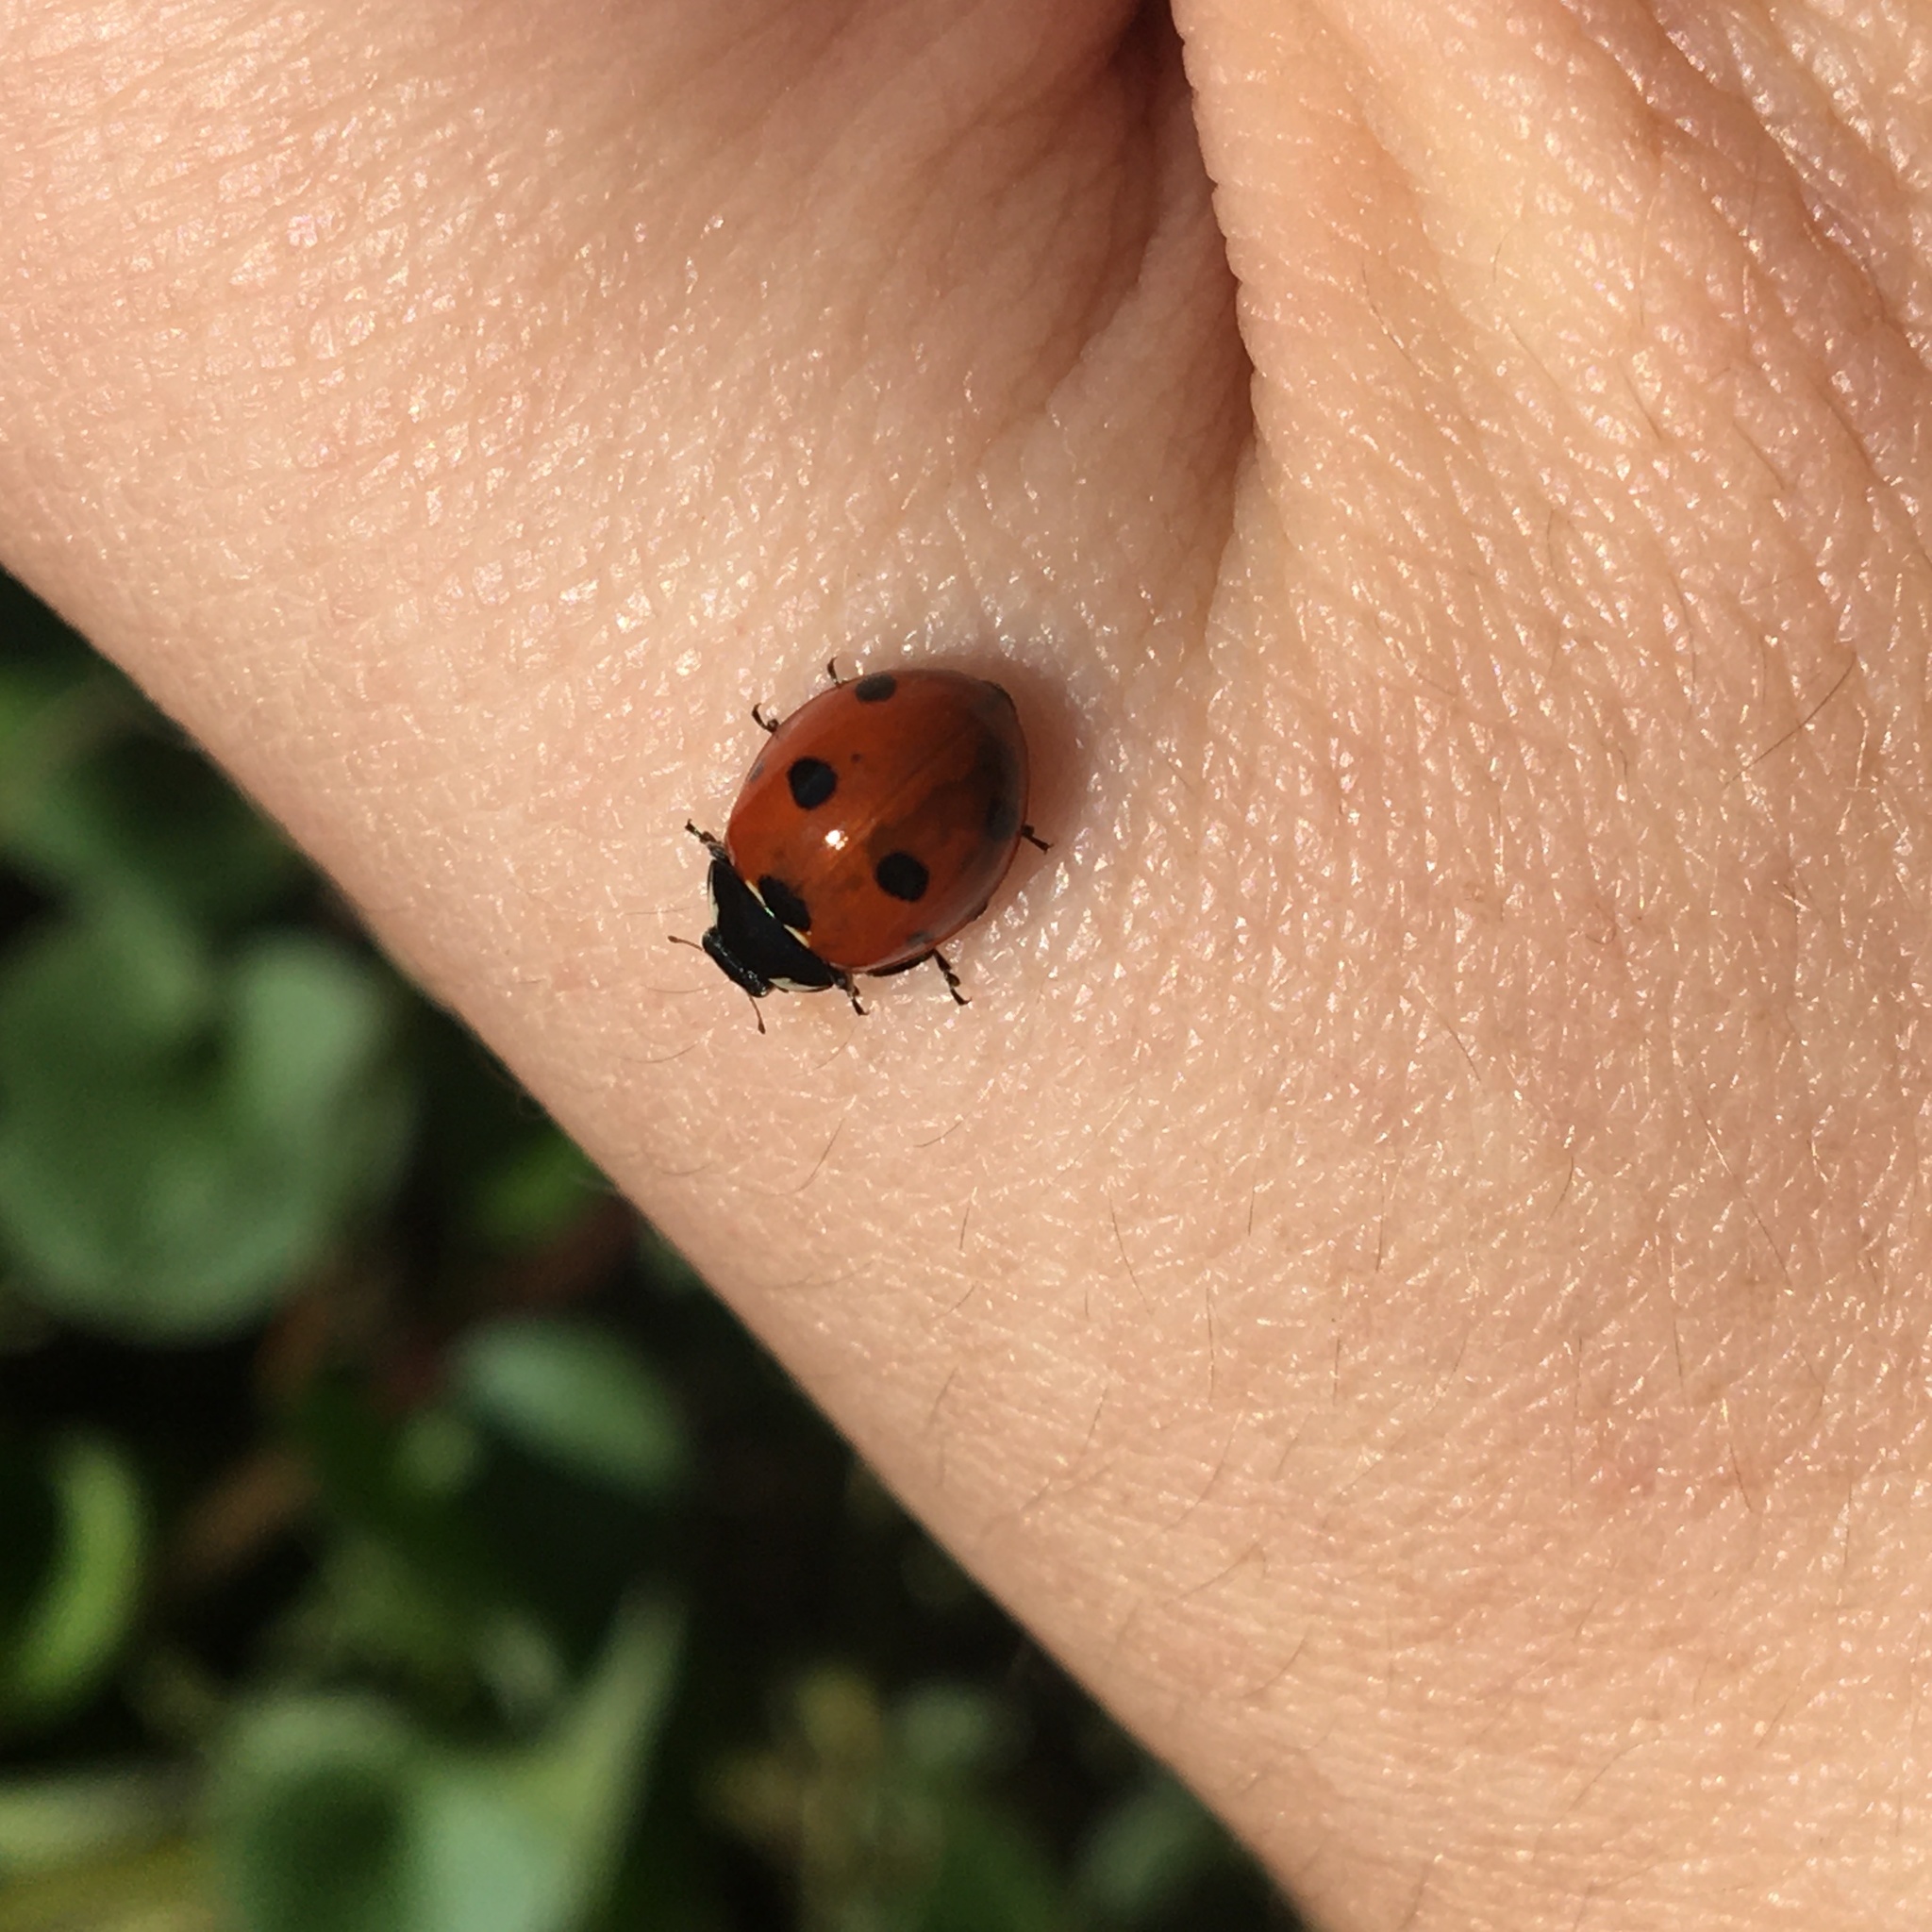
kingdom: Animalia
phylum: Arthropoda
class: Insecta
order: Coleoptera
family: Coccinellidae
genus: Coccinella
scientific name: Coccinella septempunctata
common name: Sevenspotted lady beetle
